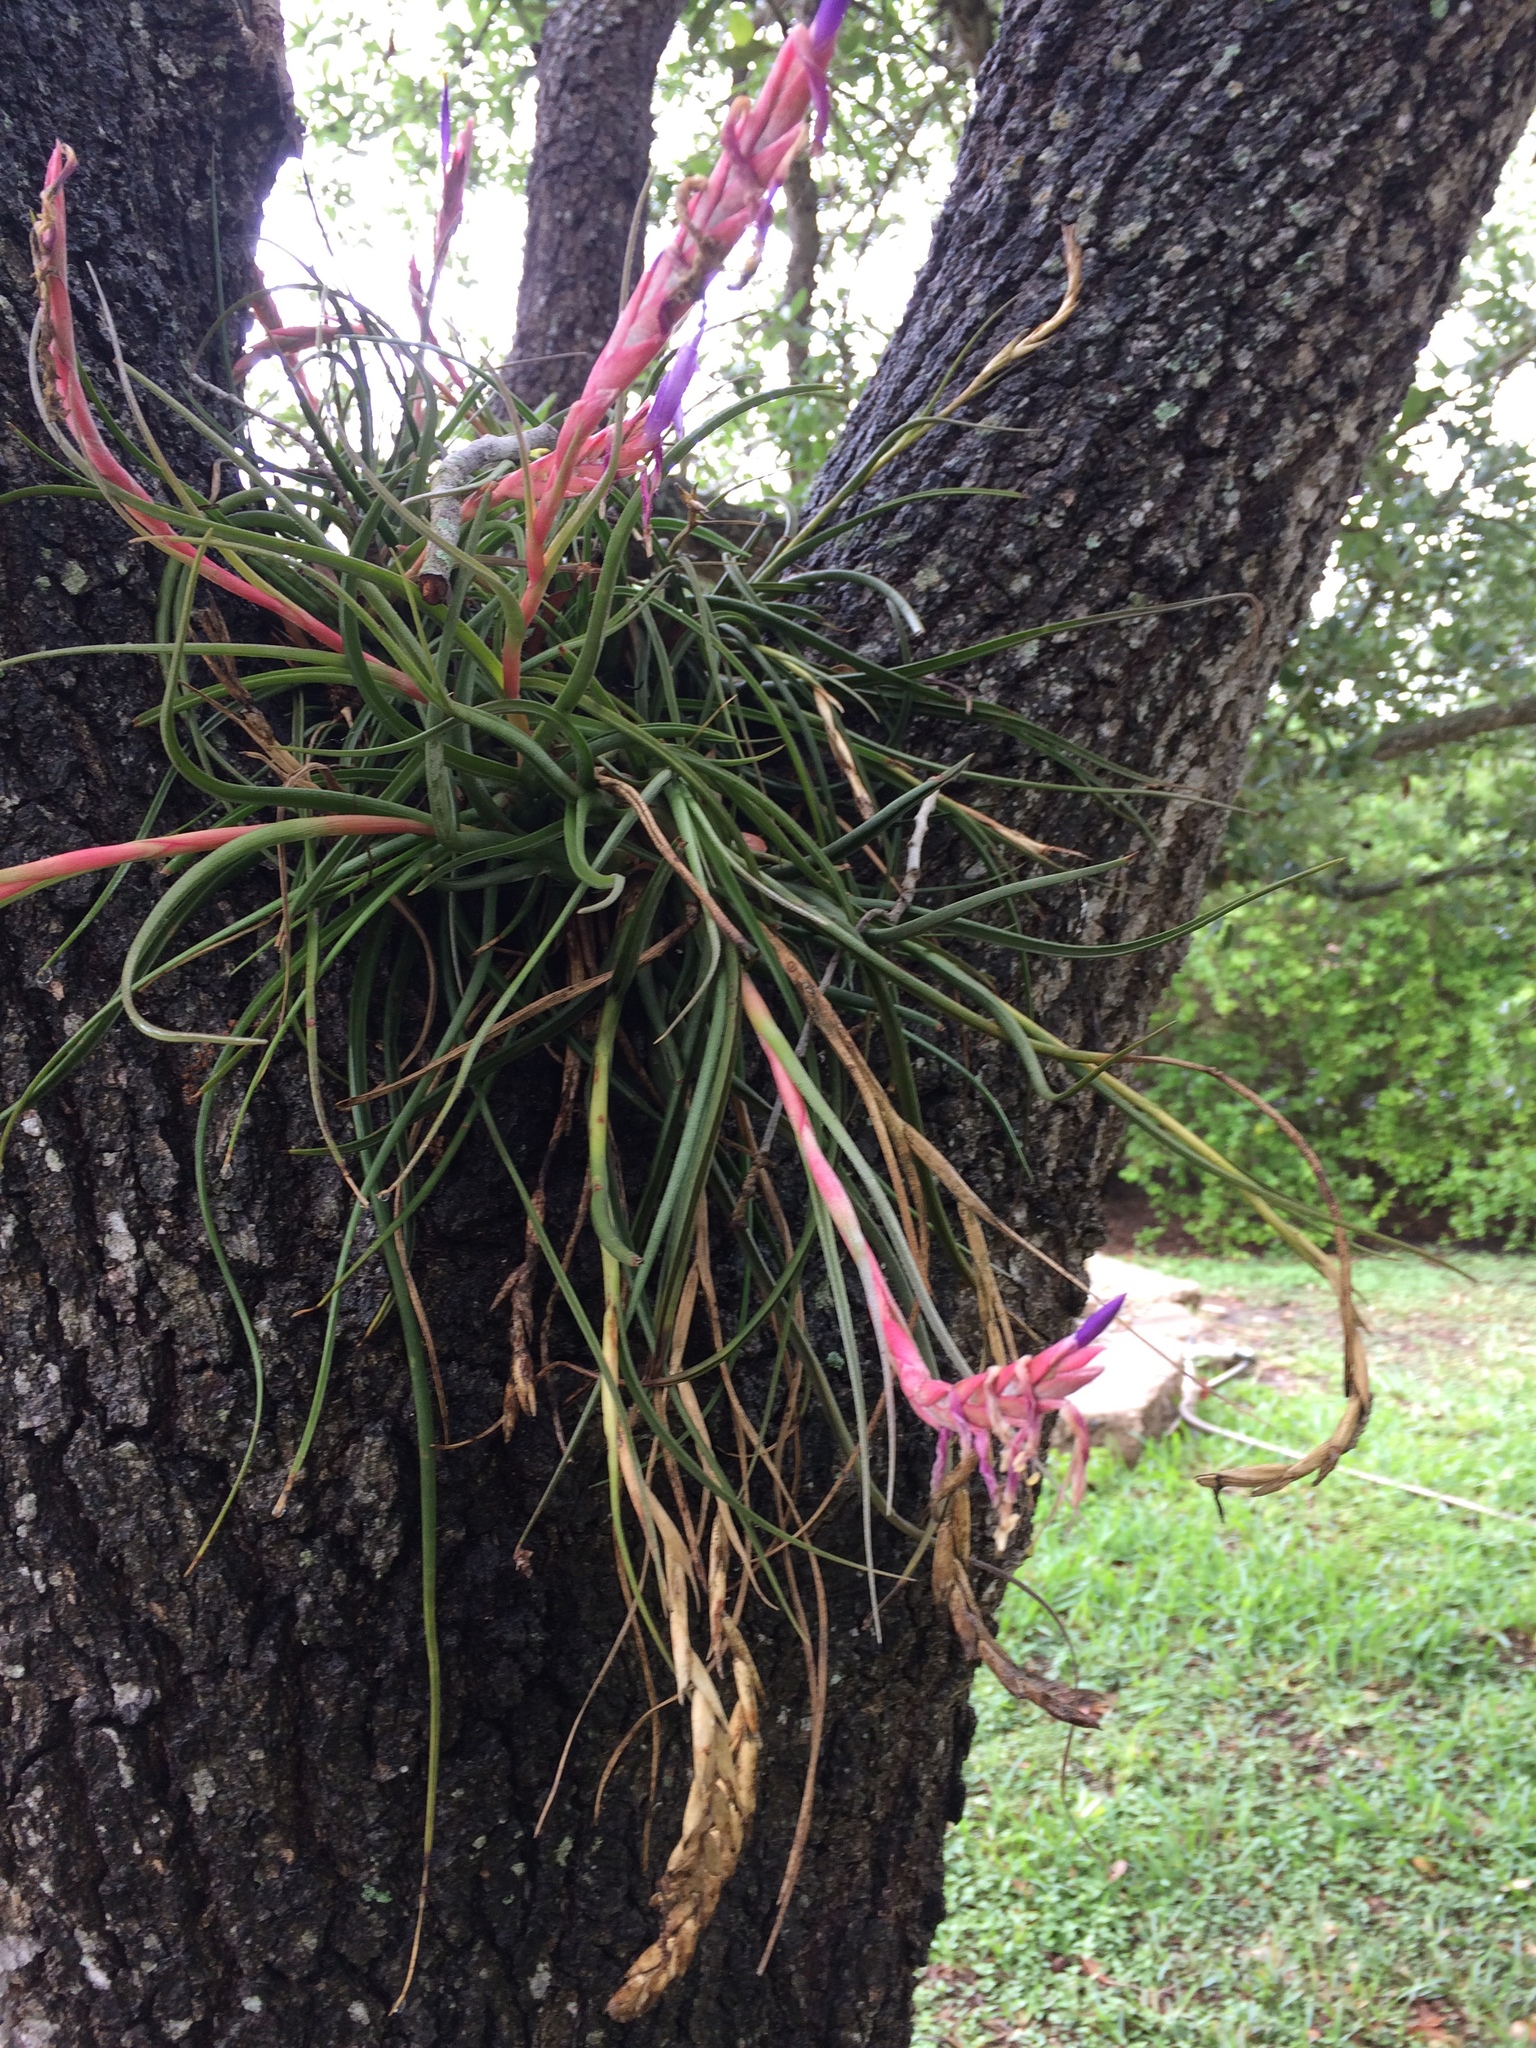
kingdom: Plantae
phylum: Tracheophyta
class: Liliopsida
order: Poales
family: Bromeliaceae
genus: Tillandsia
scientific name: Tillandsia baileyi
